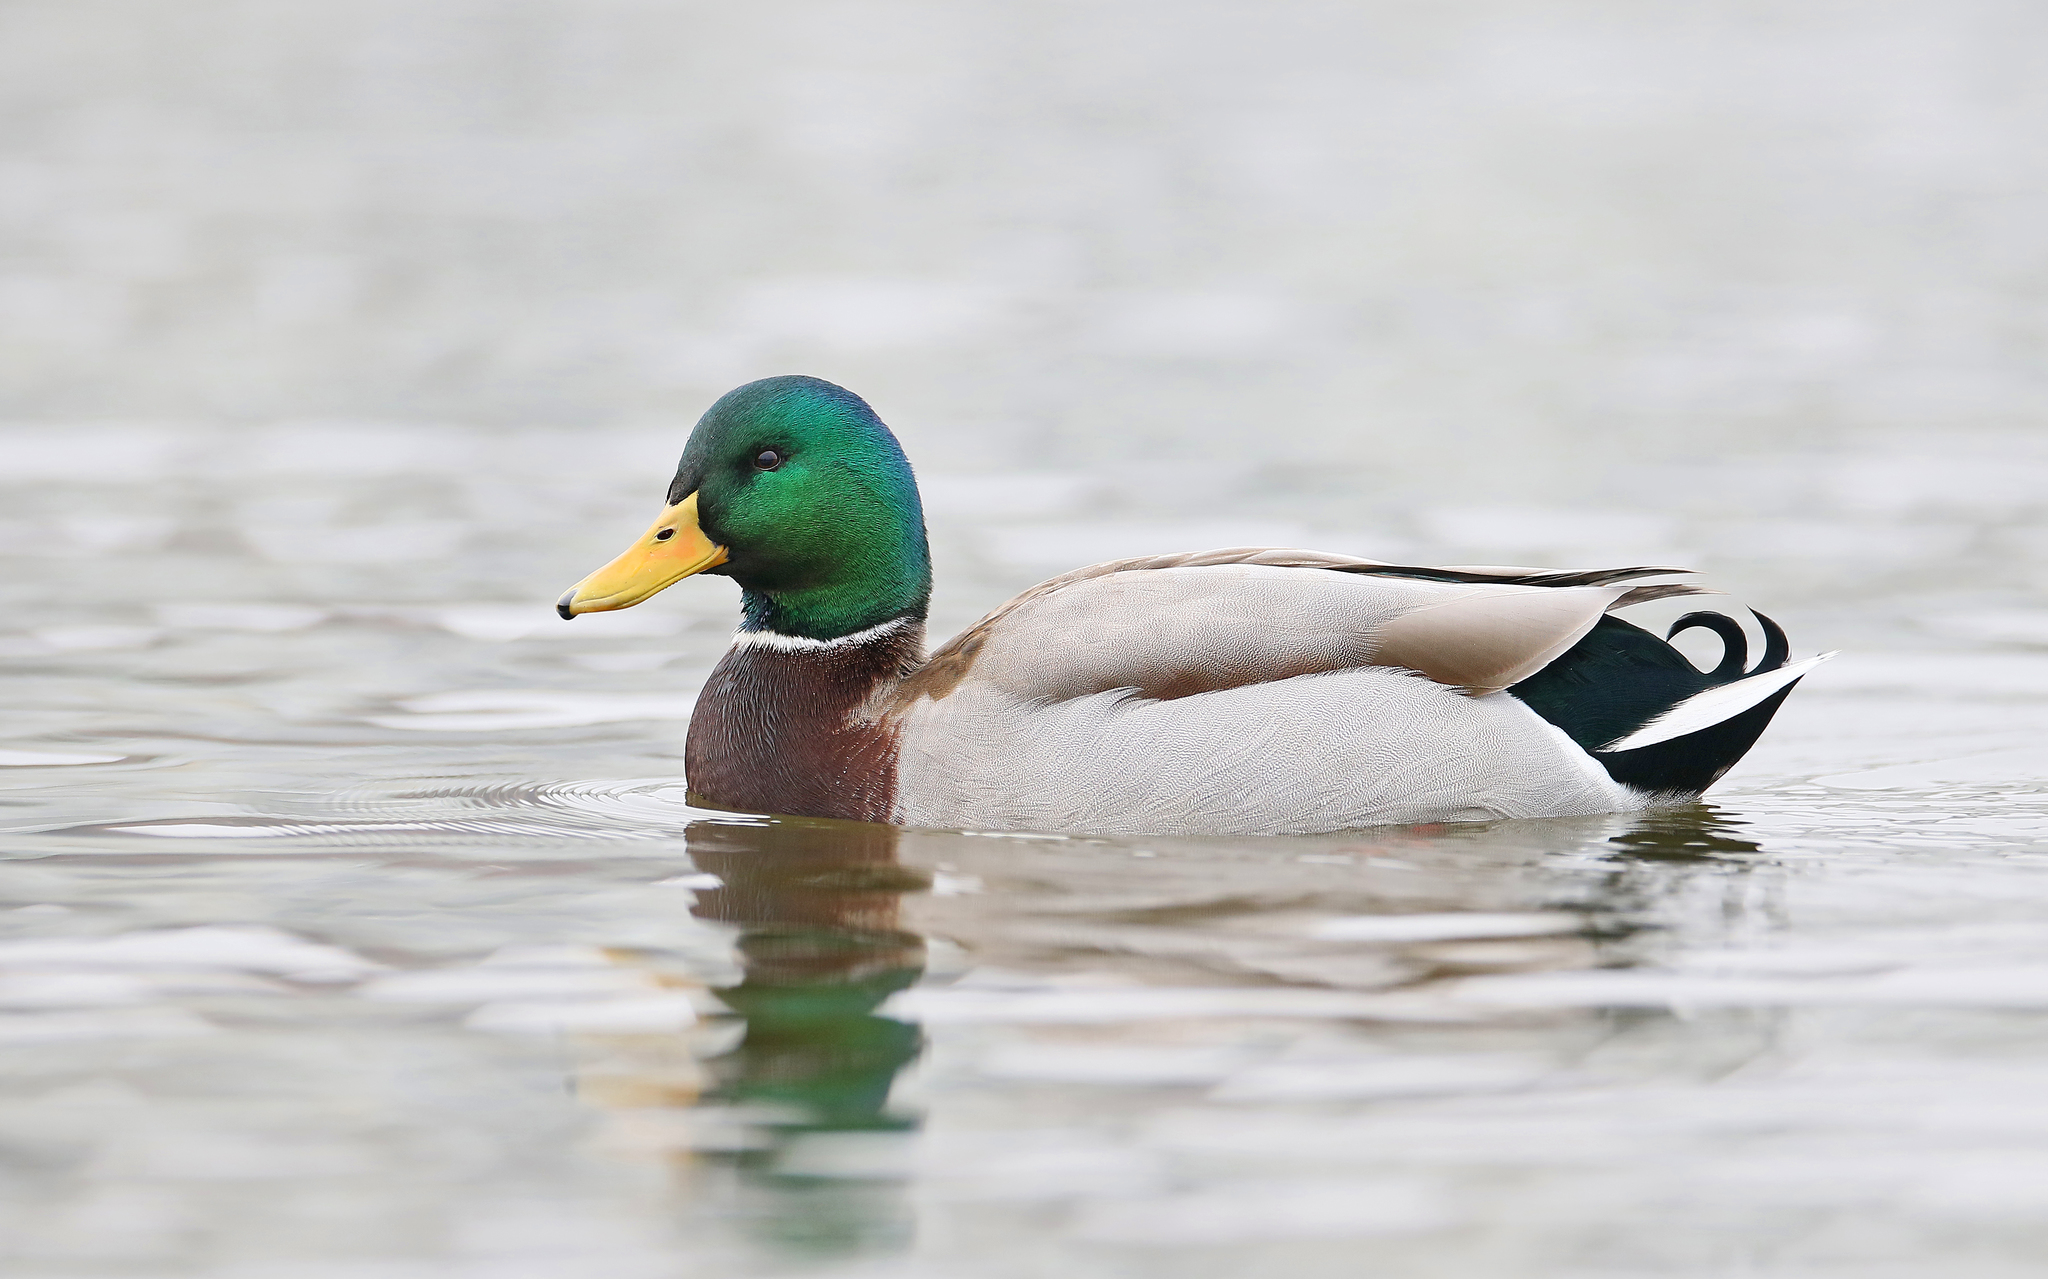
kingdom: Animalia
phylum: Chordata
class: Aves
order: Anseriformes
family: Anatidae
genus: Anas
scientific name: Anas platyrhynchos
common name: Mallard
